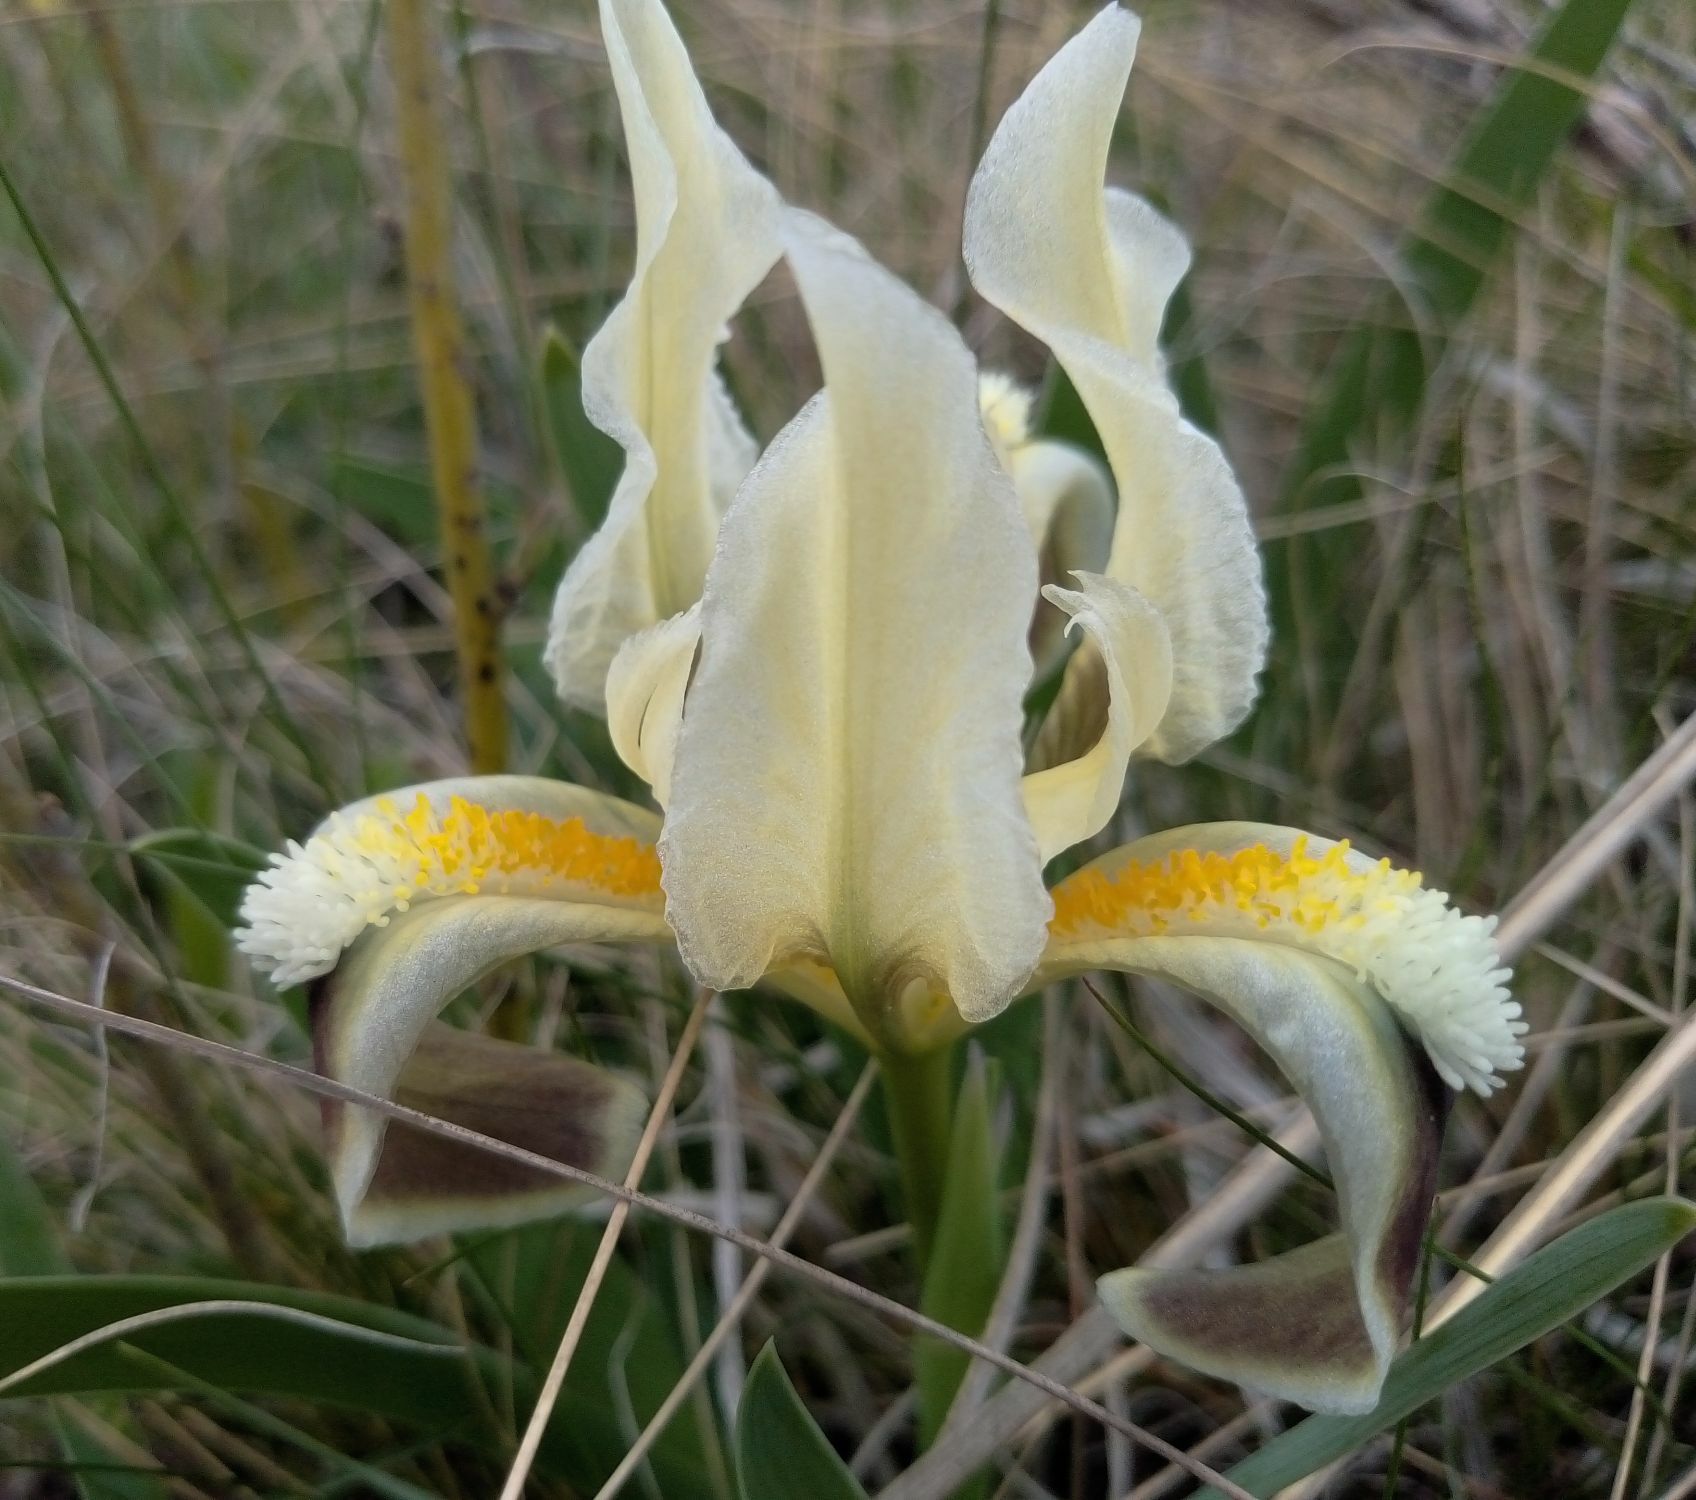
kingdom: Plantae
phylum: Tracheophyta
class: Liliopsida
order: Asparagales
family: Iridaceae
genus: Iris
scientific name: Iris pumila
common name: Dwarf iris
